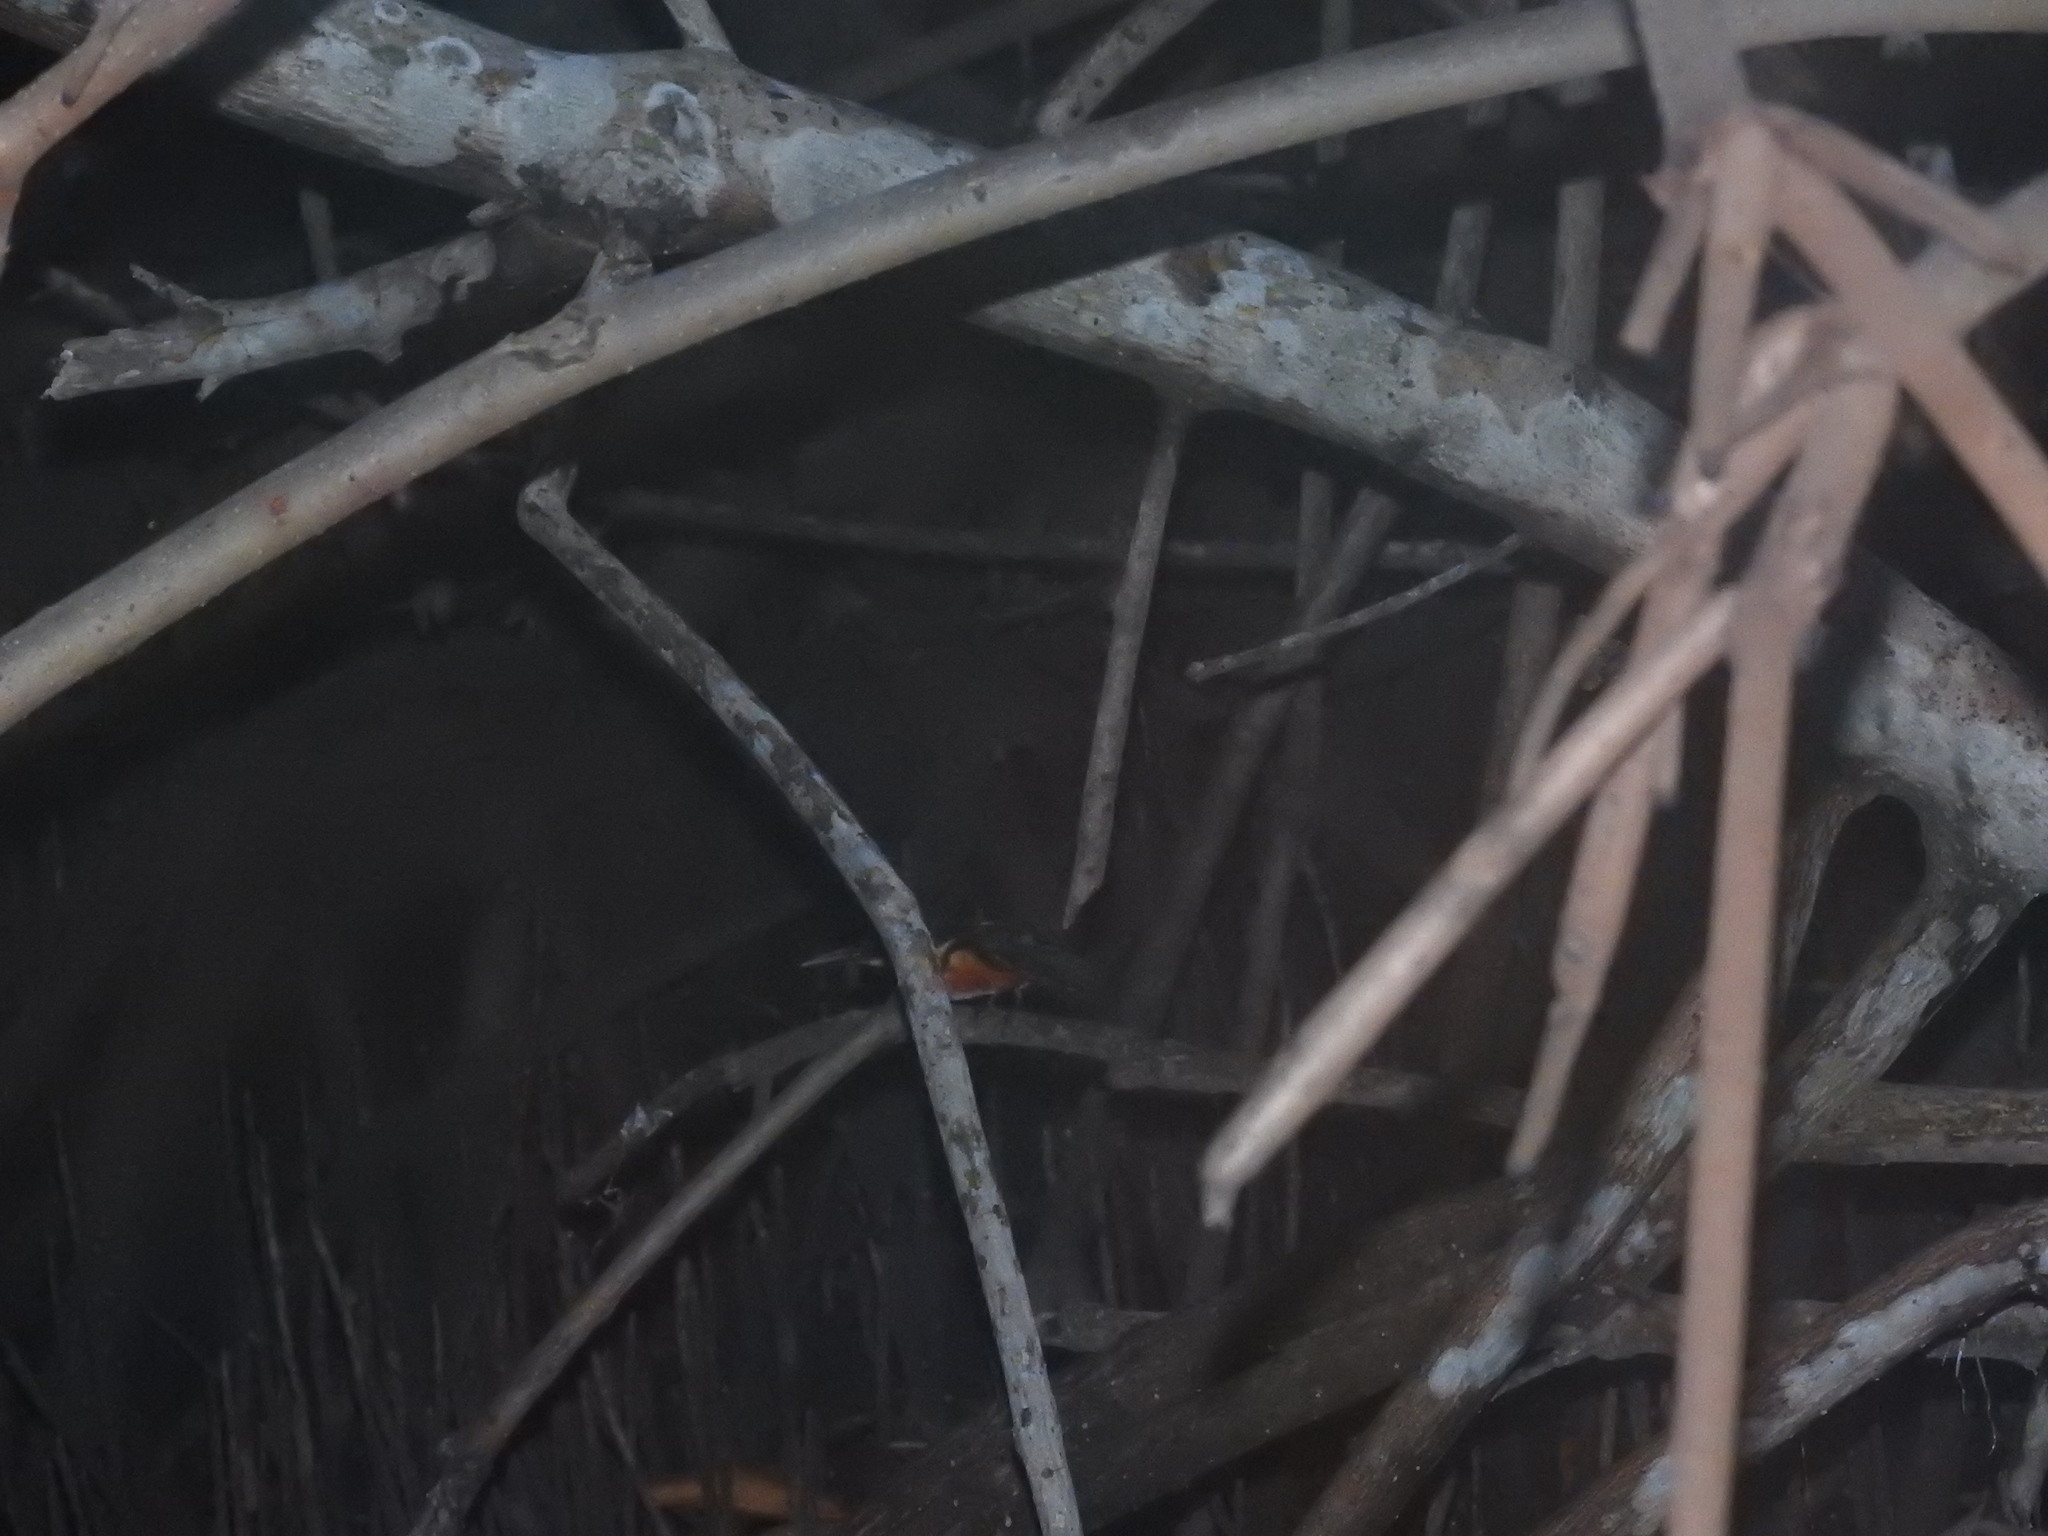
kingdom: Animalia
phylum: Chordata
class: Aves
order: Coraciiformes
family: Alcedinidae
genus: Chloroceryle
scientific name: Chloroceryle aenea
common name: American pygmy kingfisher
